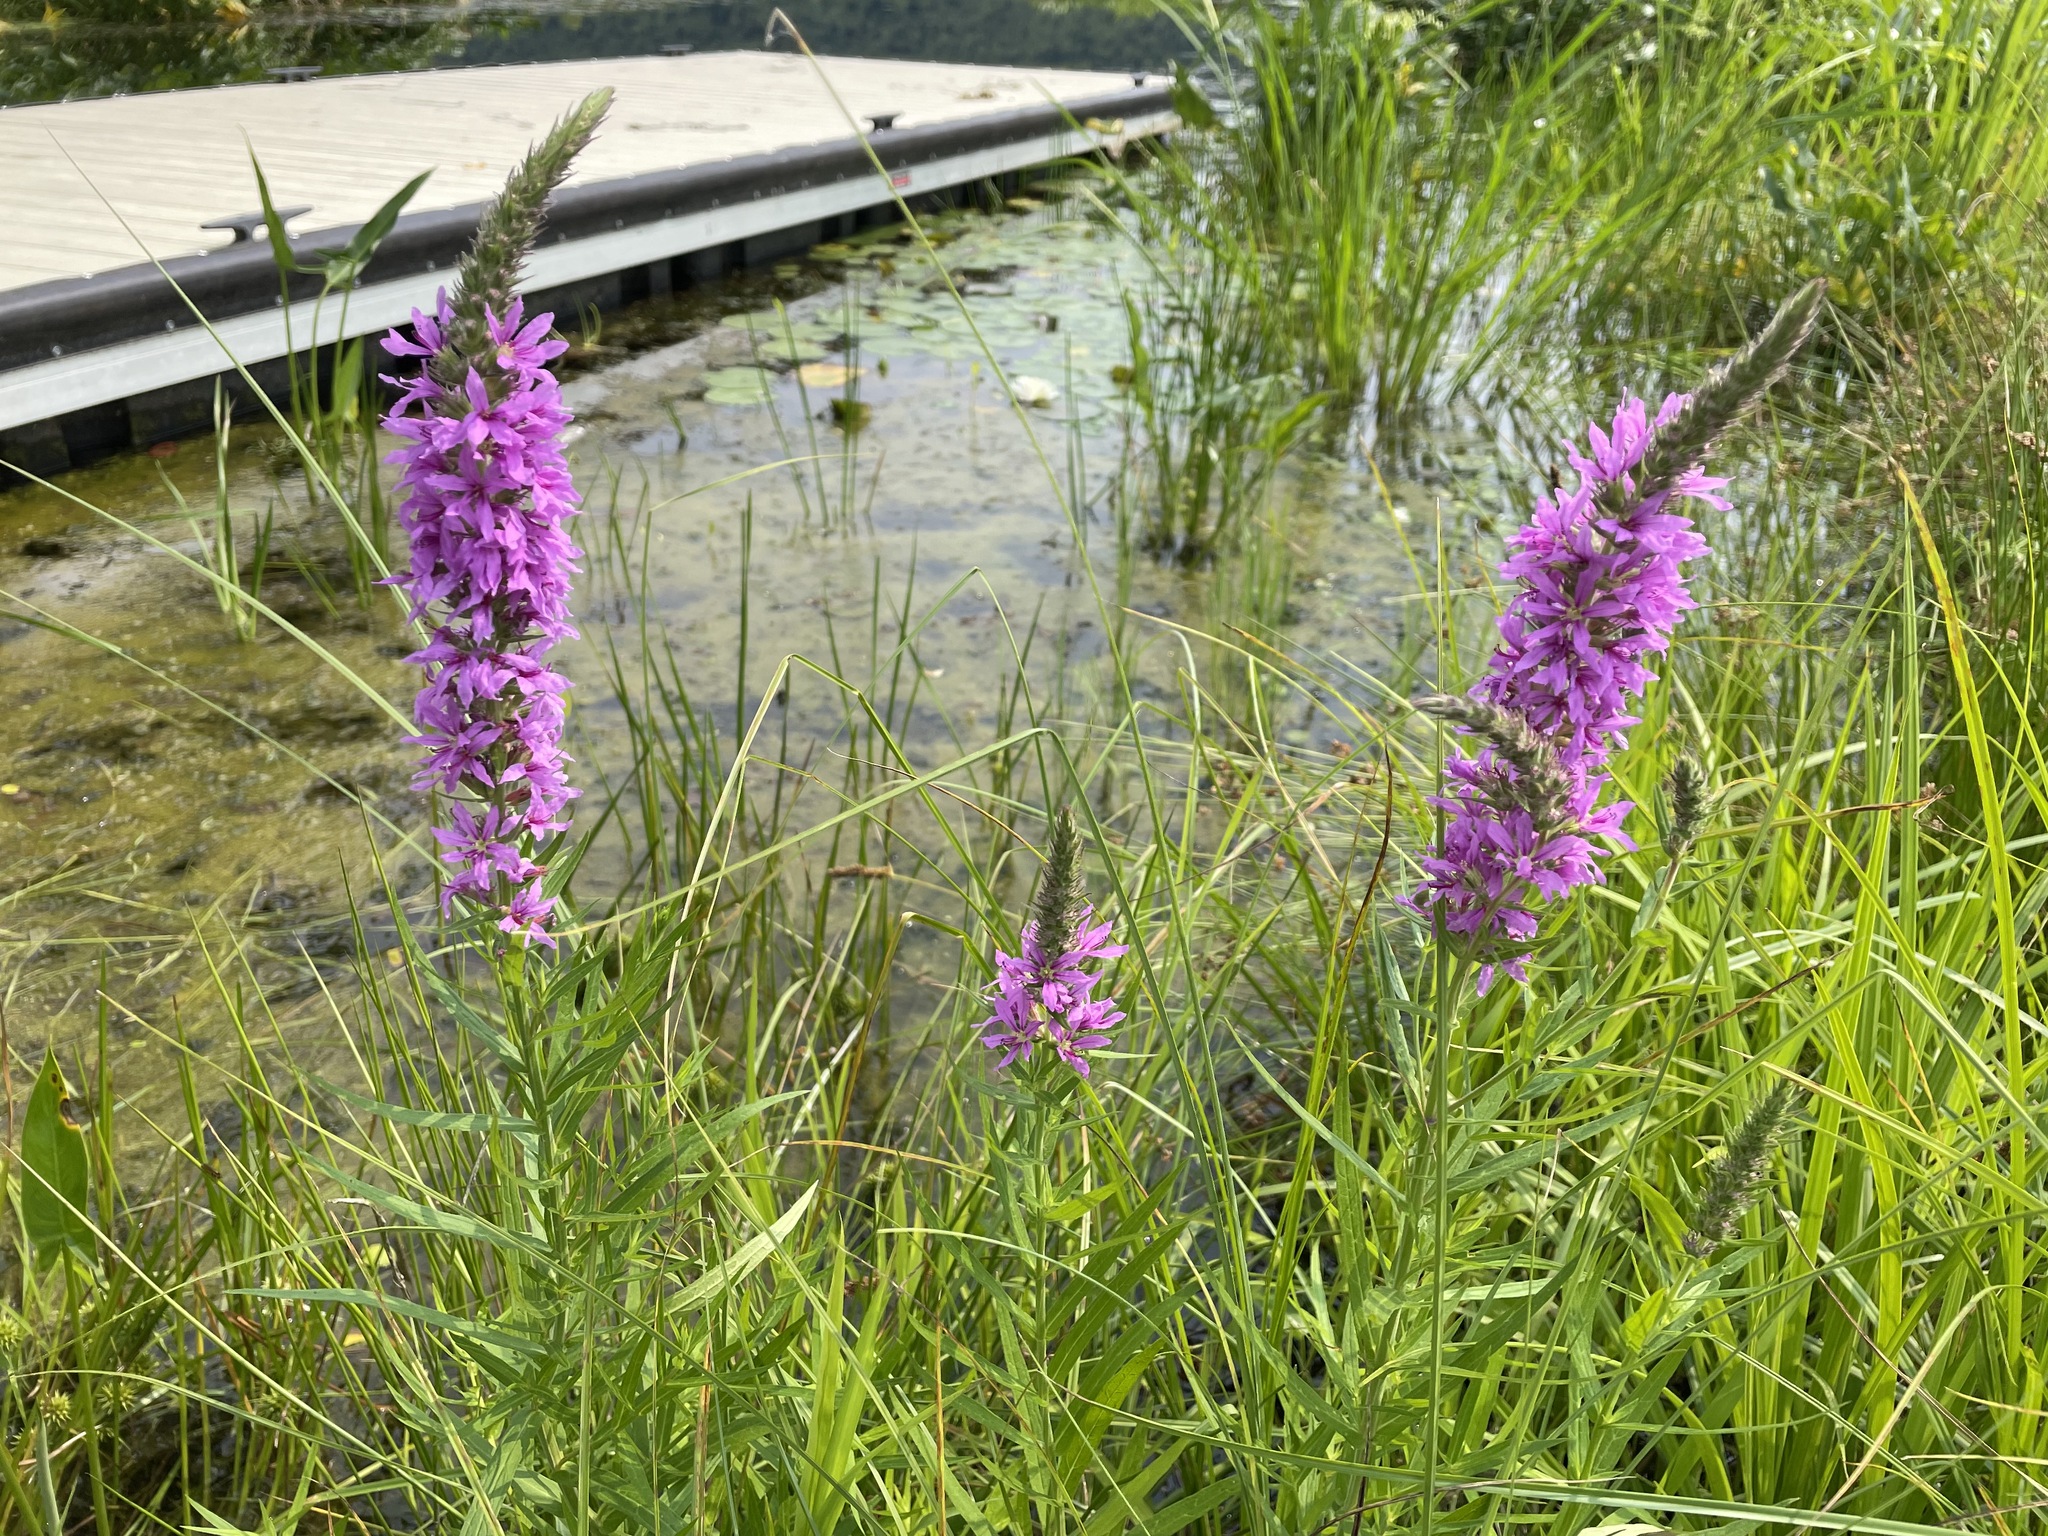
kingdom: Plantae
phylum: Tracheophyta
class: Magnoliopsida
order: Myrtales
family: Lythraceae
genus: Lythrum
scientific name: Lythrum salicaria
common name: Purple loosestrife
